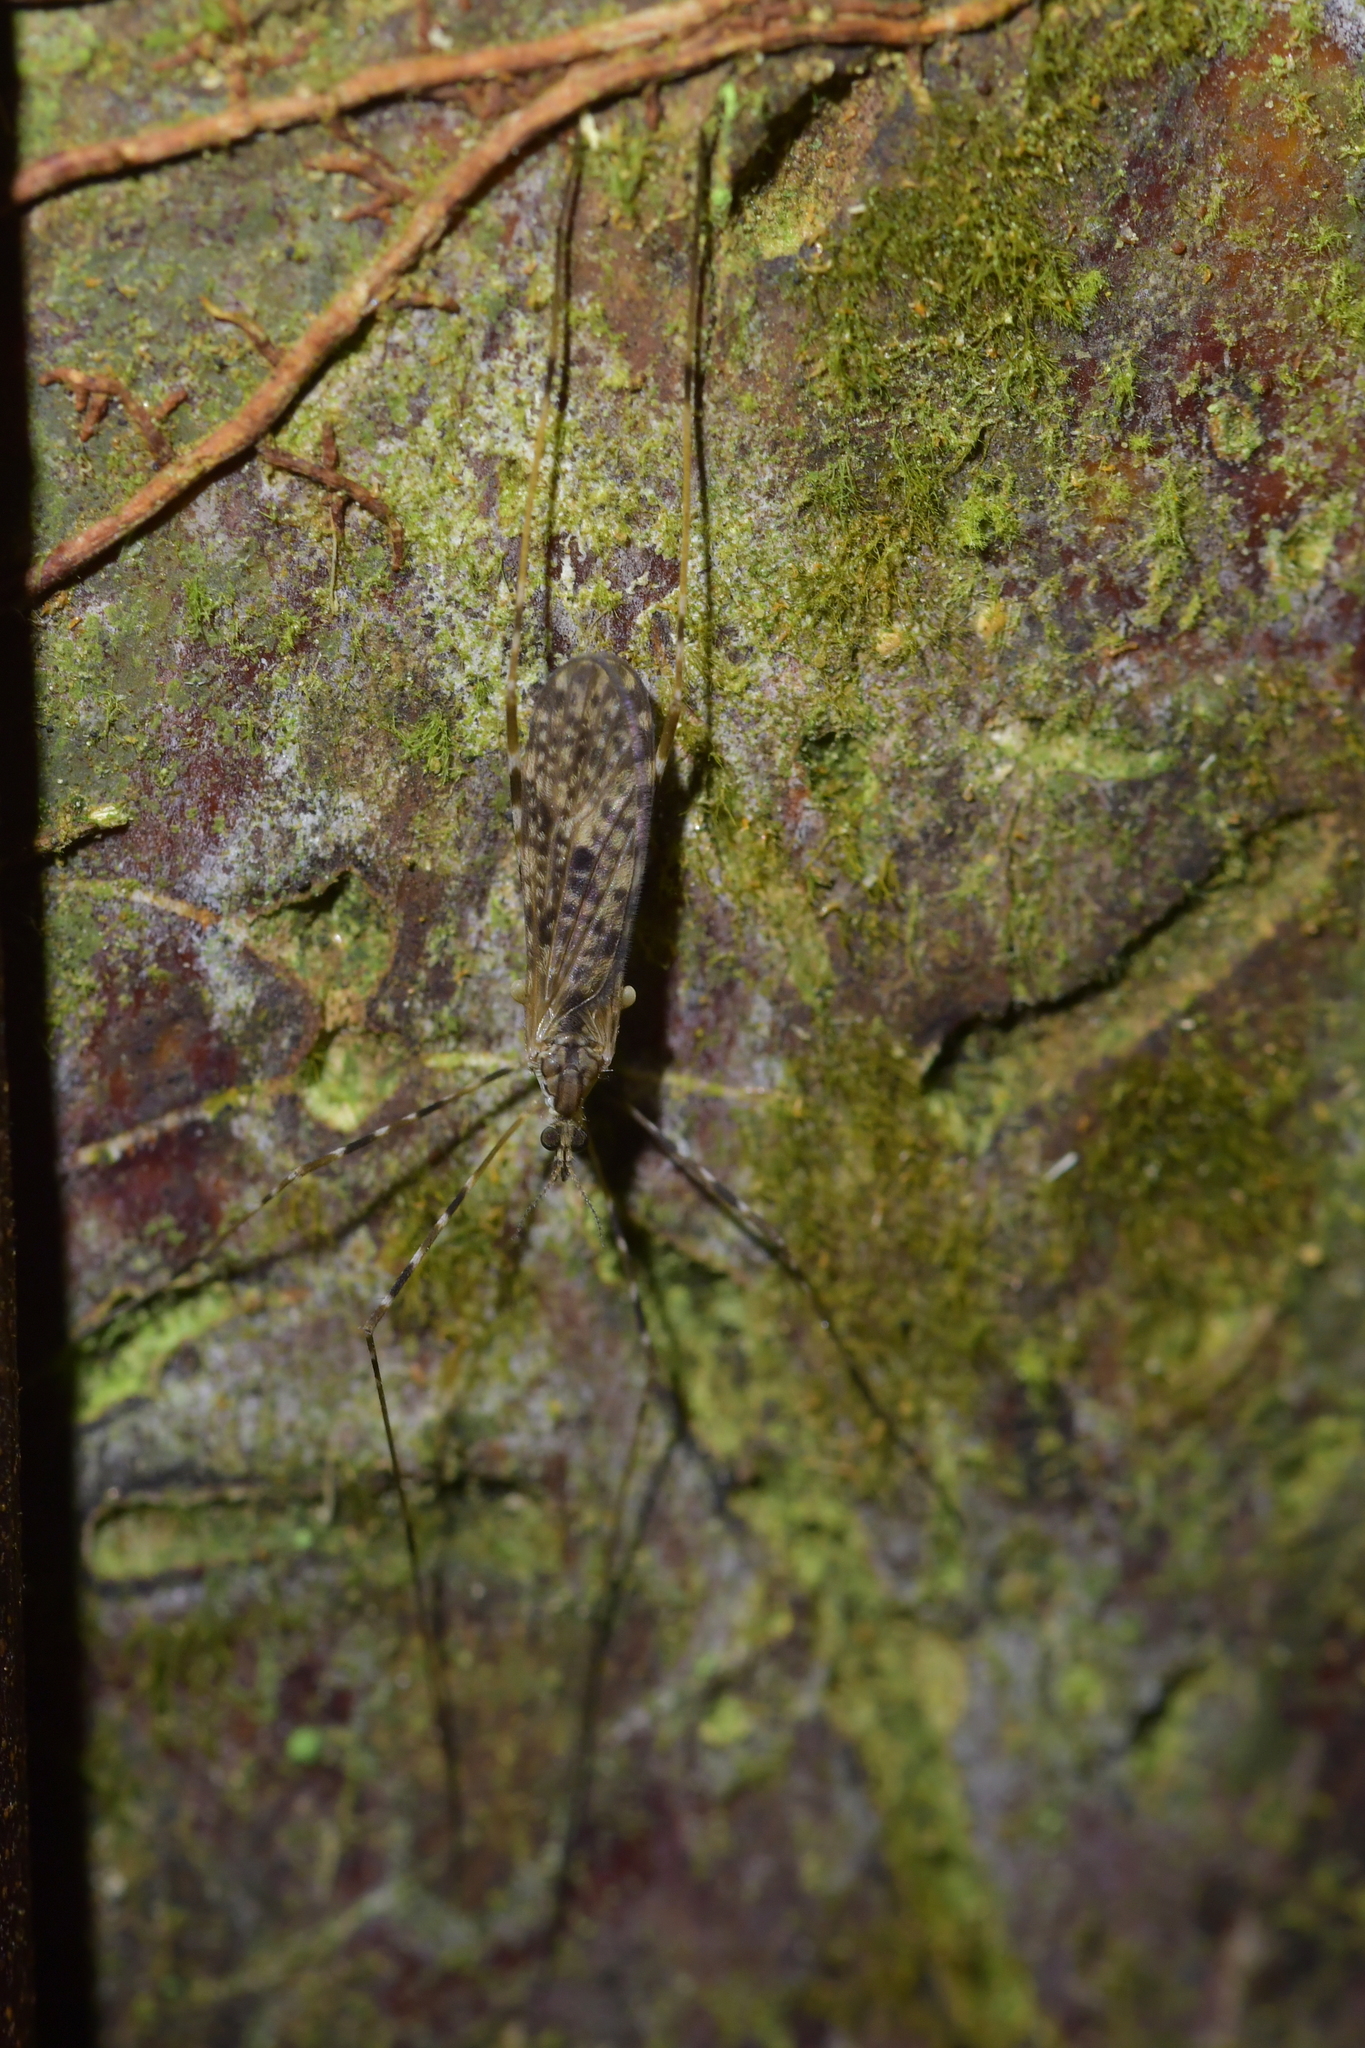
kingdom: Animalia
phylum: Arthropoda
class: Insecta
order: Diptera
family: Limoniidae
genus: Amphineurus
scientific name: Amphineurus hudsoni
